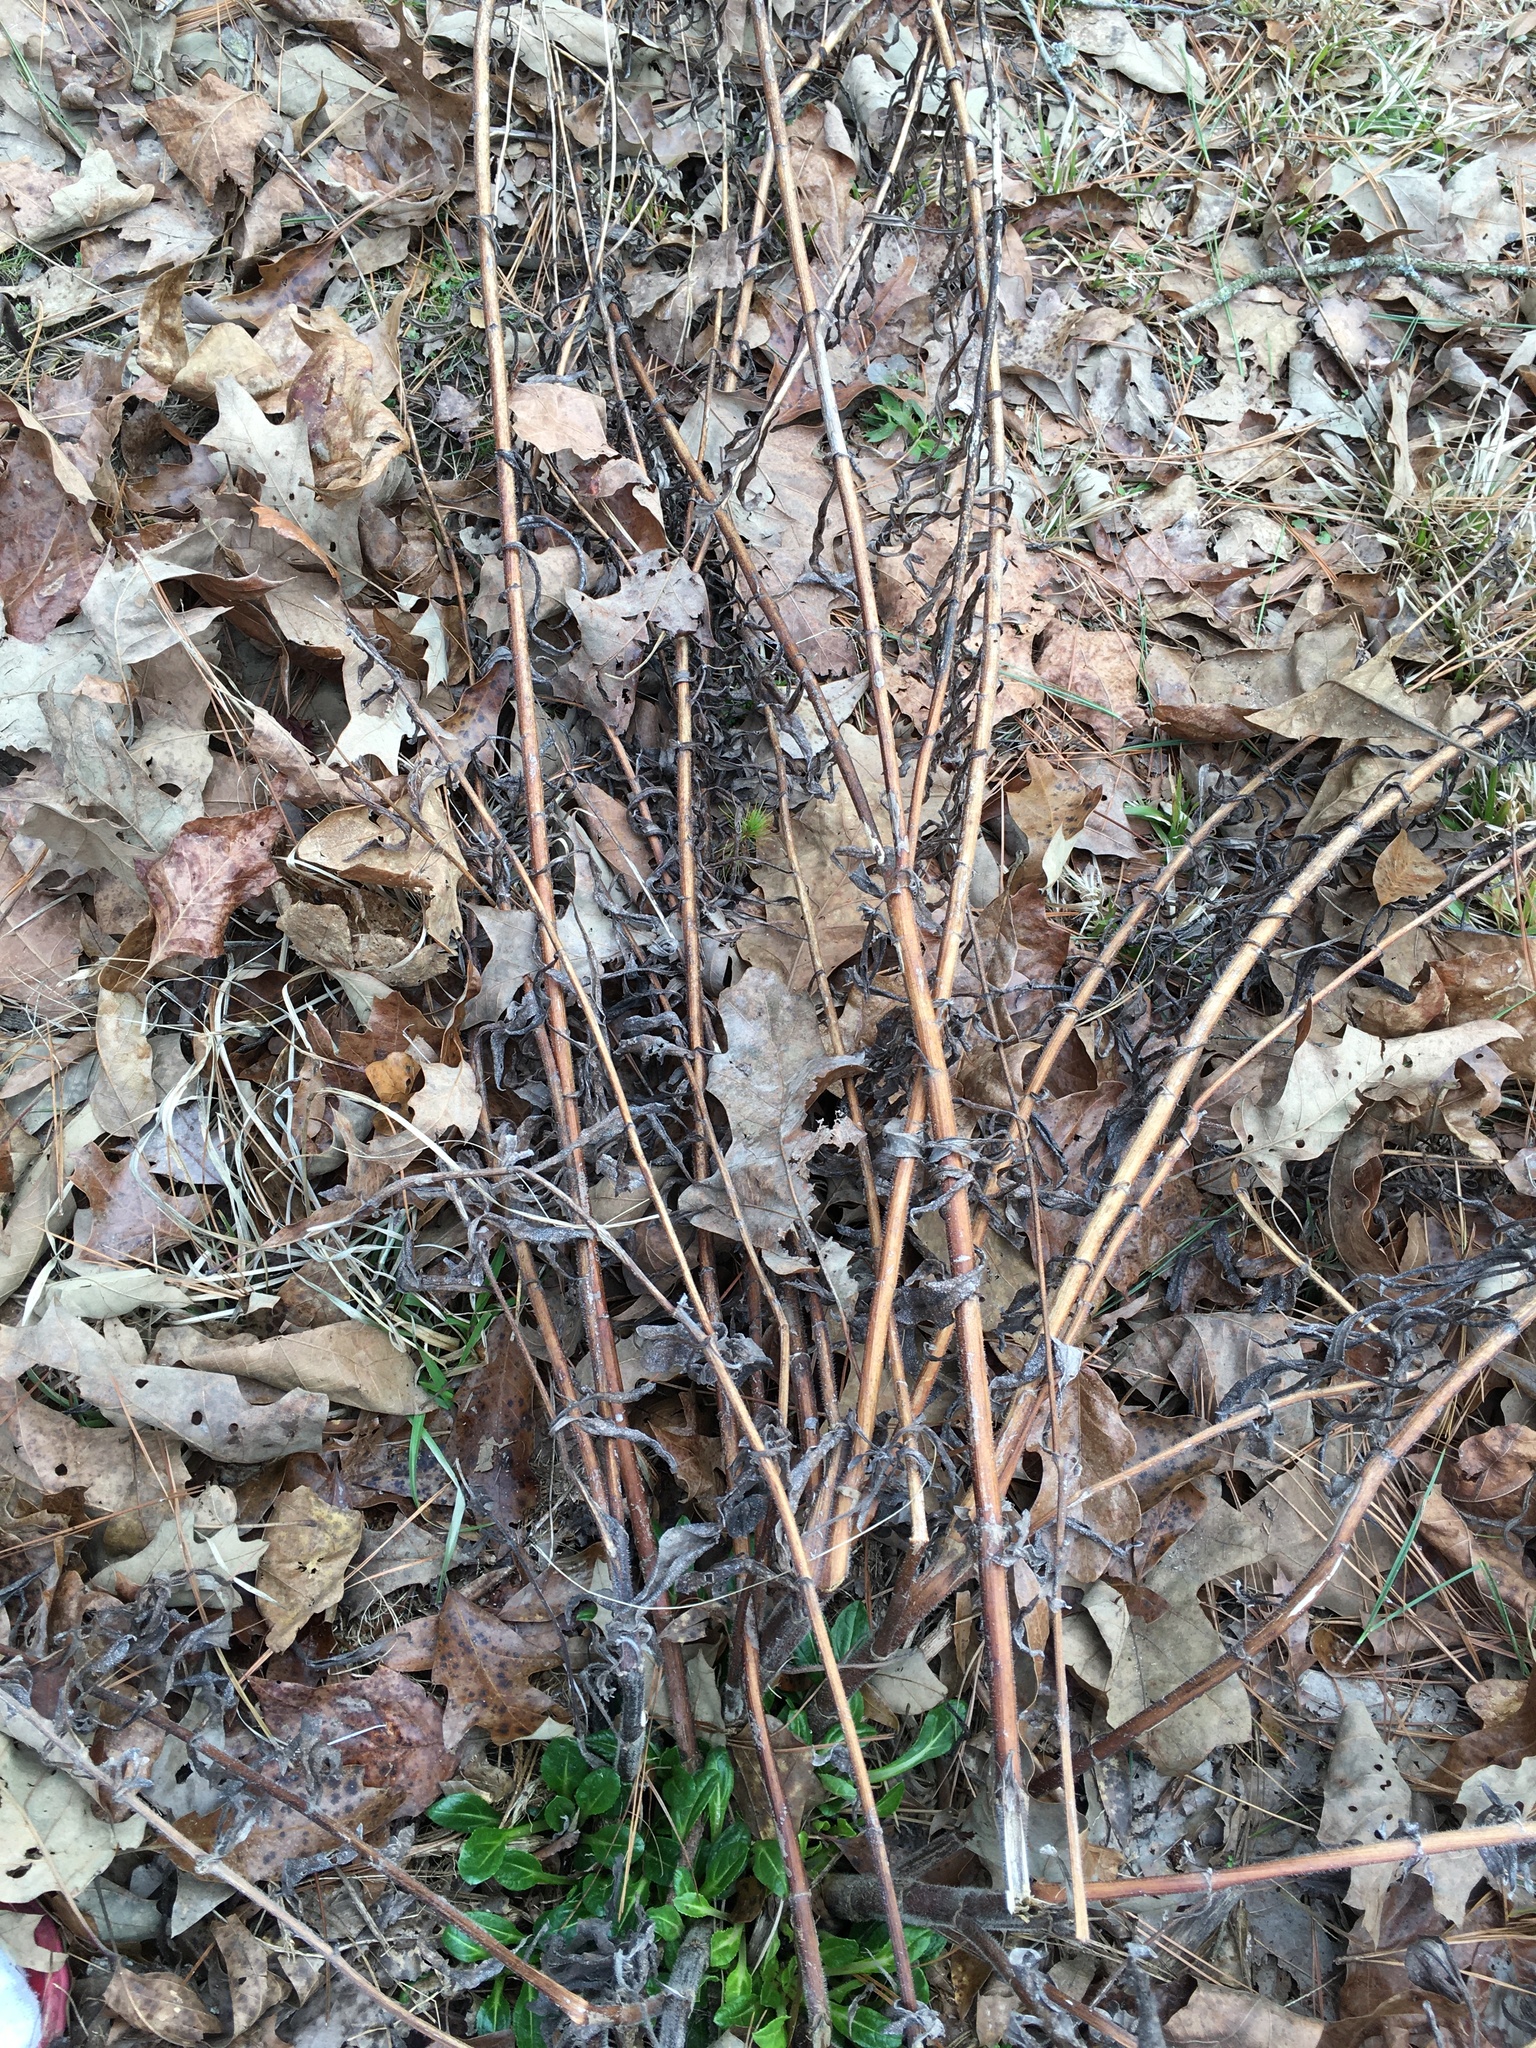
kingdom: Plantae
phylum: Tracheophyta
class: Magnoliopsida
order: Asterales
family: Asteraceae
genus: Helianthus
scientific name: Helianthus simulans
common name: Muck sunflower
